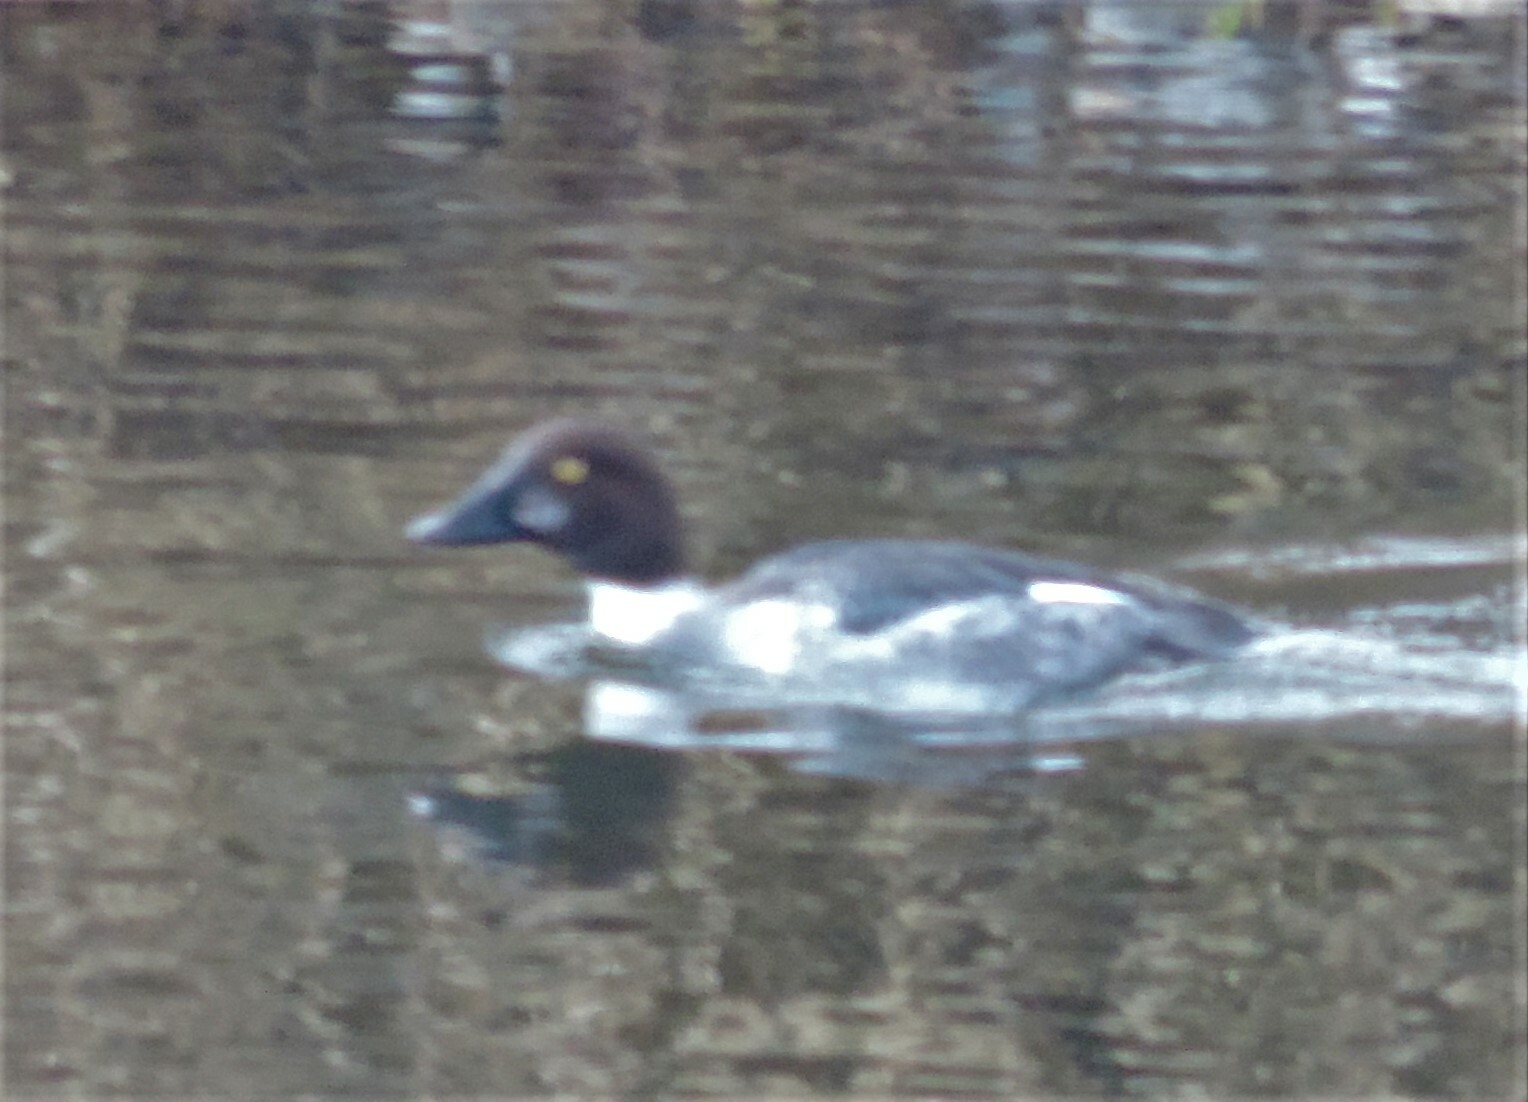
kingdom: Animalia
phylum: Chordata
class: Aves
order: Anseriformes
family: Anatidae
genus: Bucephala
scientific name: Bucephala clangula
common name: Common goldeneye
